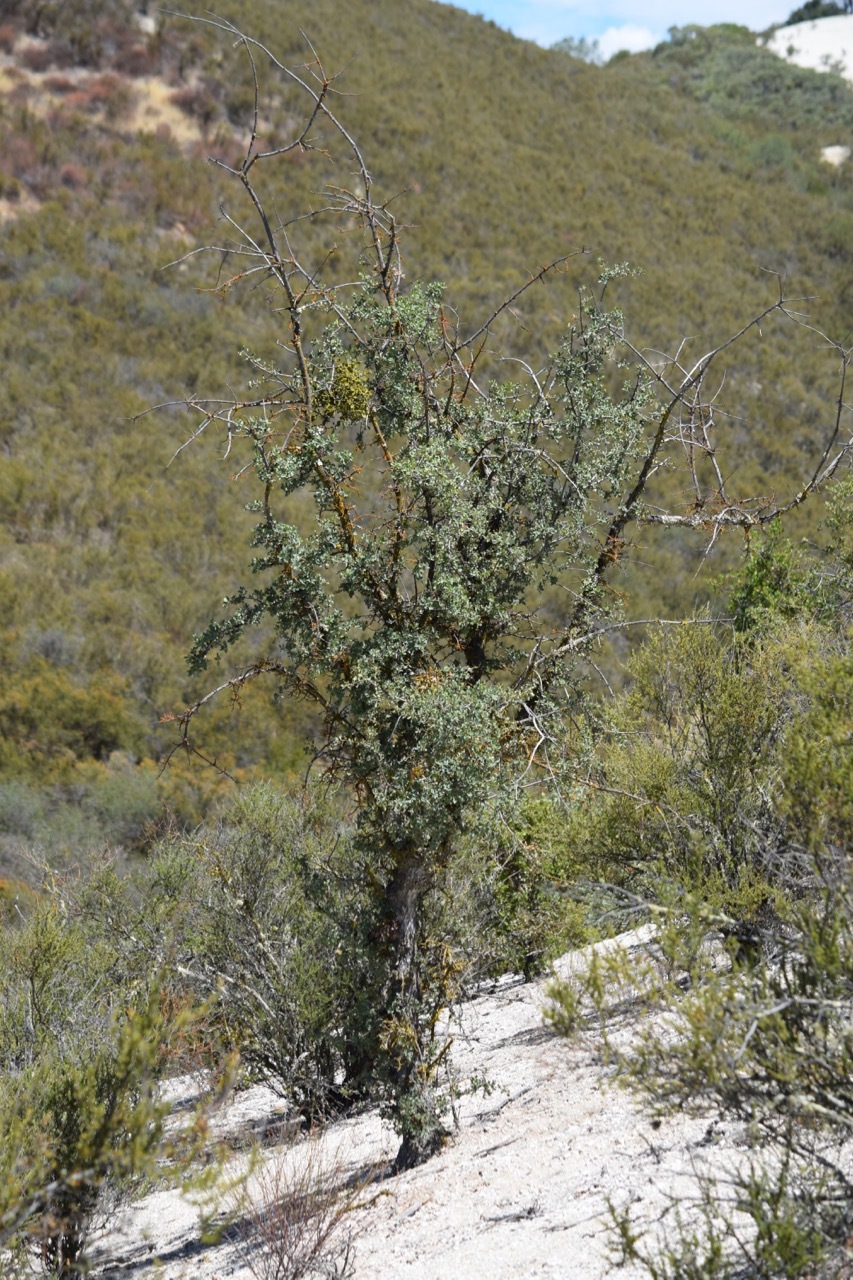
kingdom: Plantae
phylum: Tracheophyta
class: Magnoliopsida
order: Fagales
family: Fagaceae
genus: Quercus
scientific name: Quercus douglasii
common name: Blue oak
